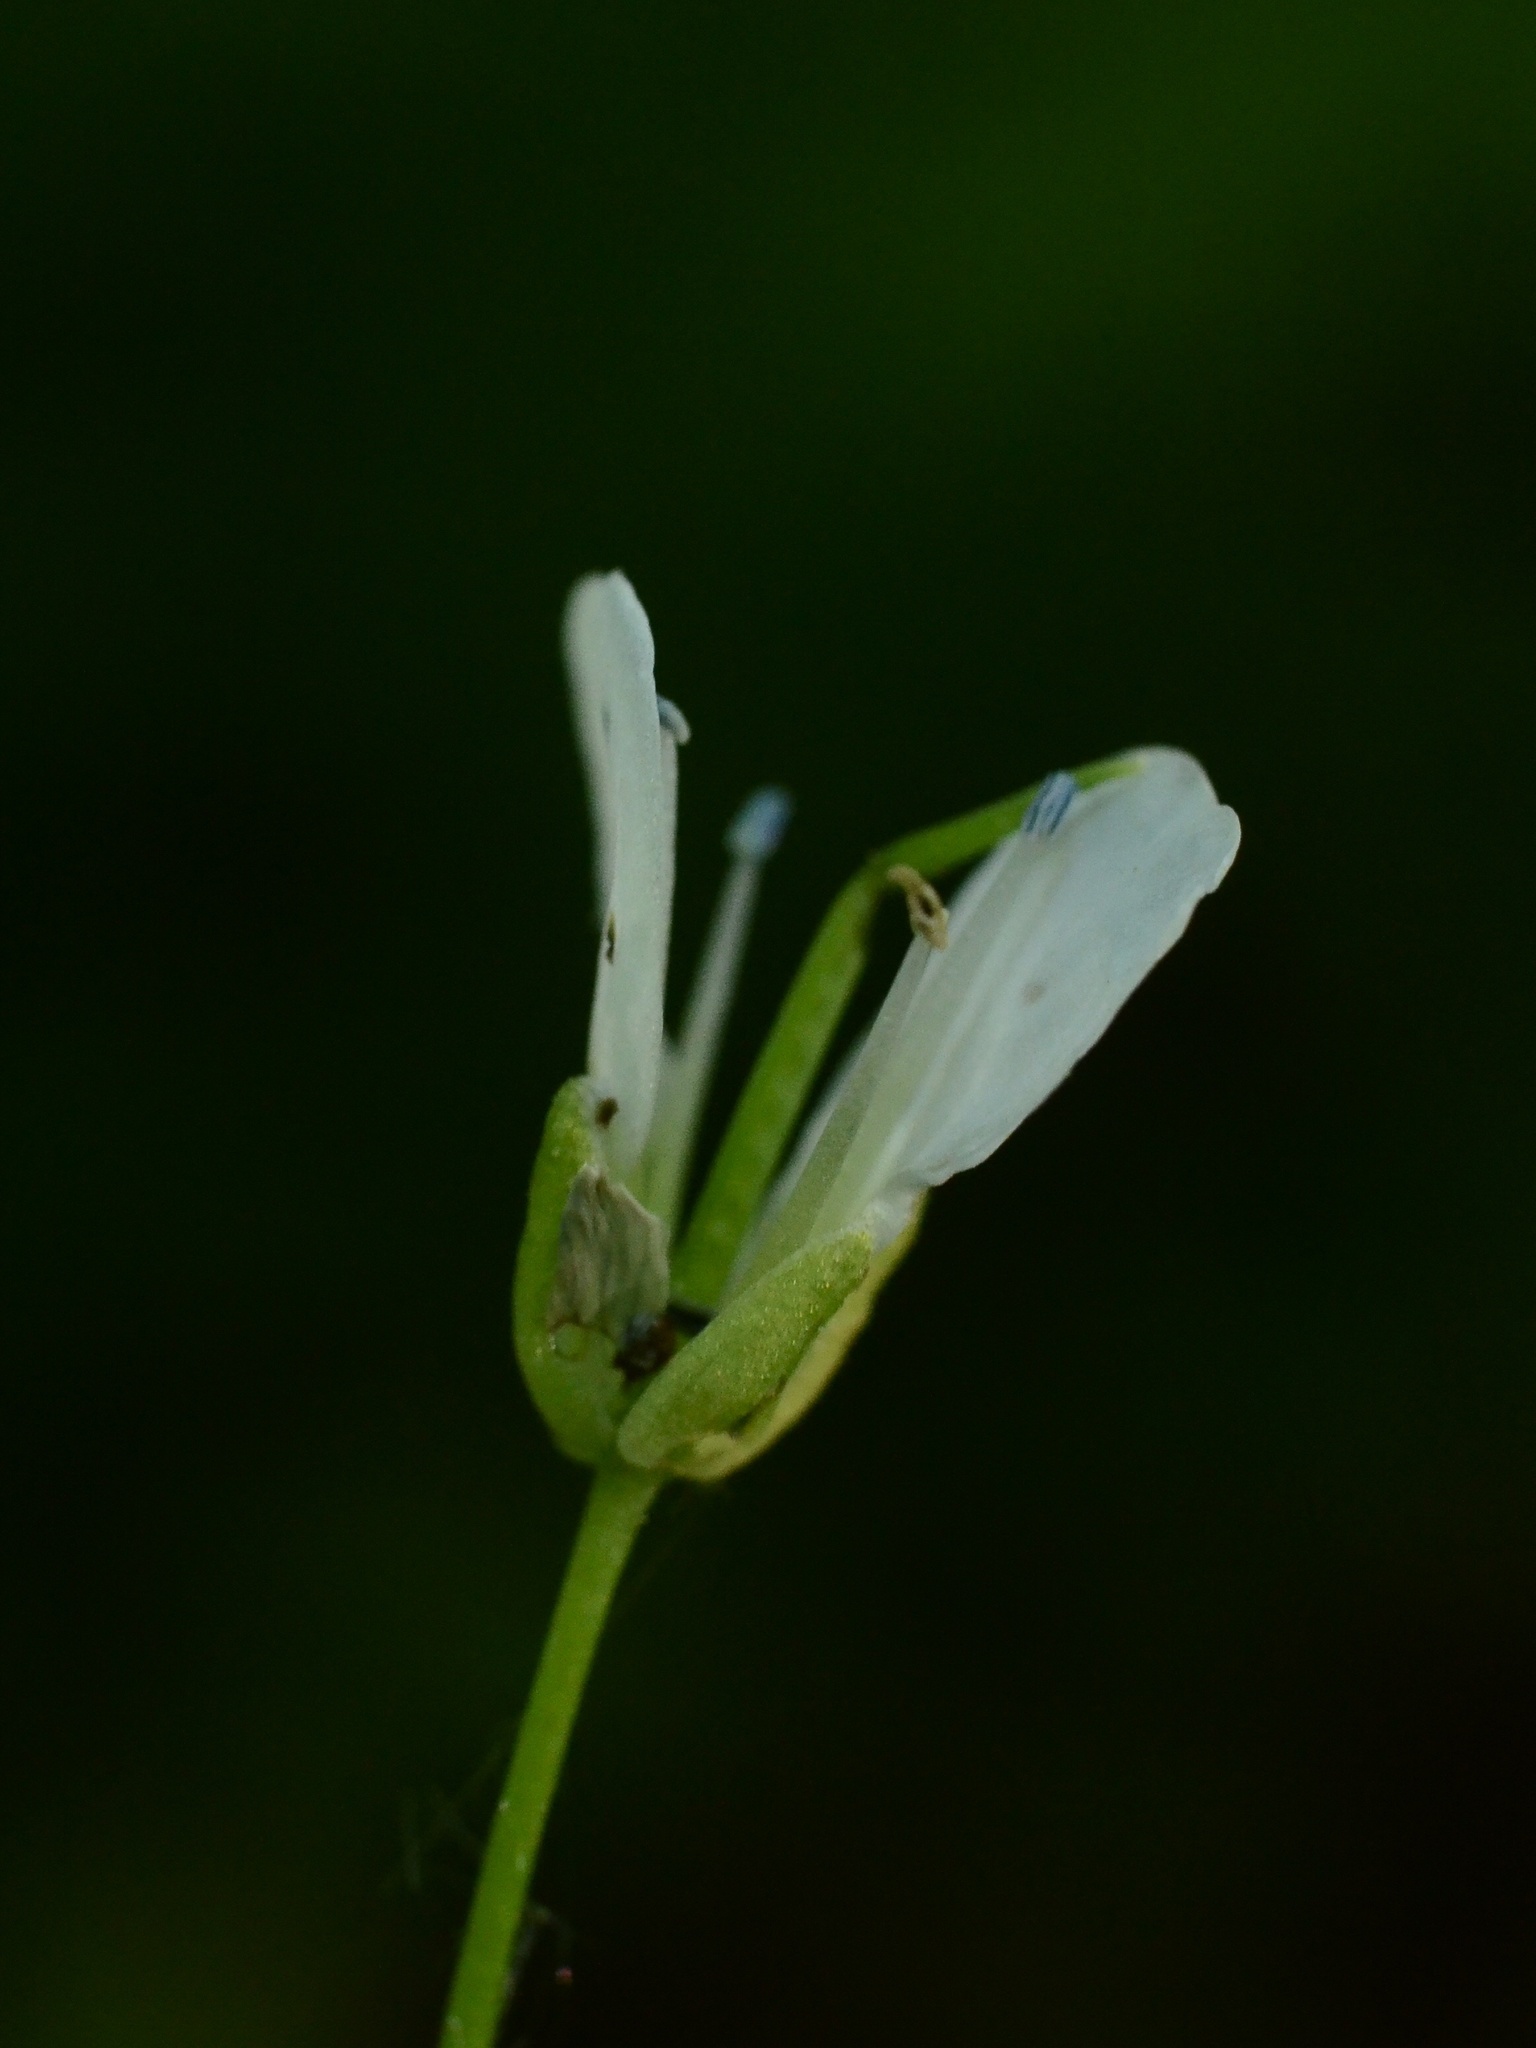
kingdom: Plantae
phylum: Tracheophyta
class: Magnoliopsida
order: Brassicales
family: Brassicaceae
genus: Cardamine
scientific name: Cardamine amara
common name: Large bitter-cress
